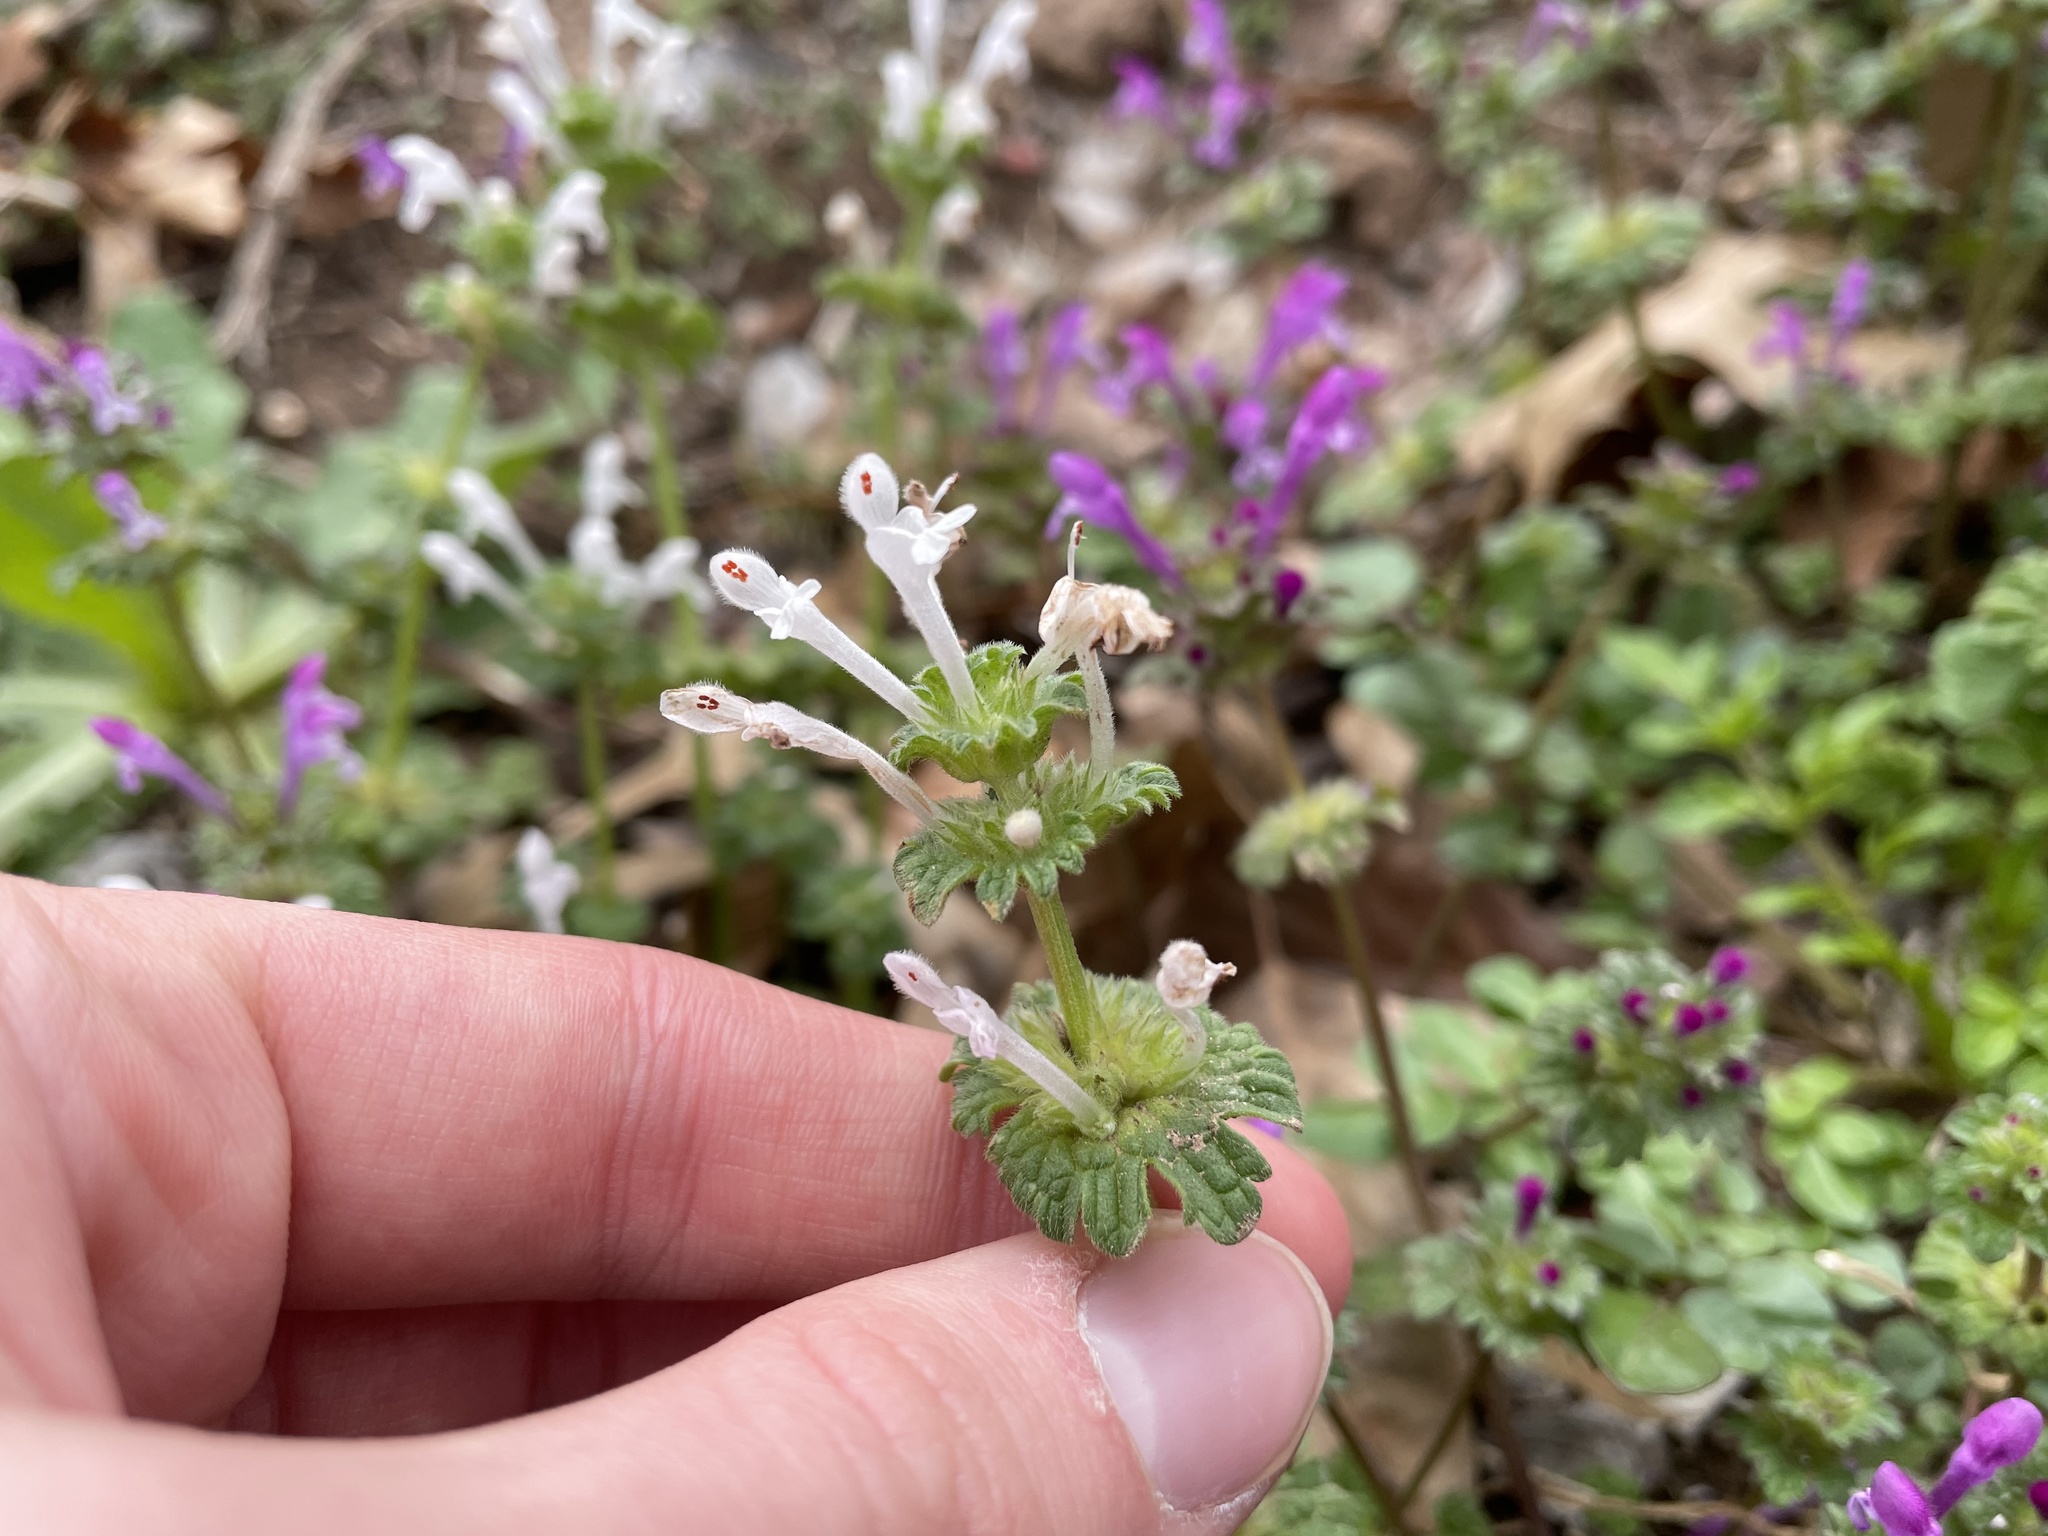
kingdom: Plantae
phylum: Tracheophyta
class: Magnoliopsida
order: Lamiales
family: Lamiaceae
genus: Lamium
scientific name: Lamium amplexicaule
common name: Henbit dead-nettle
